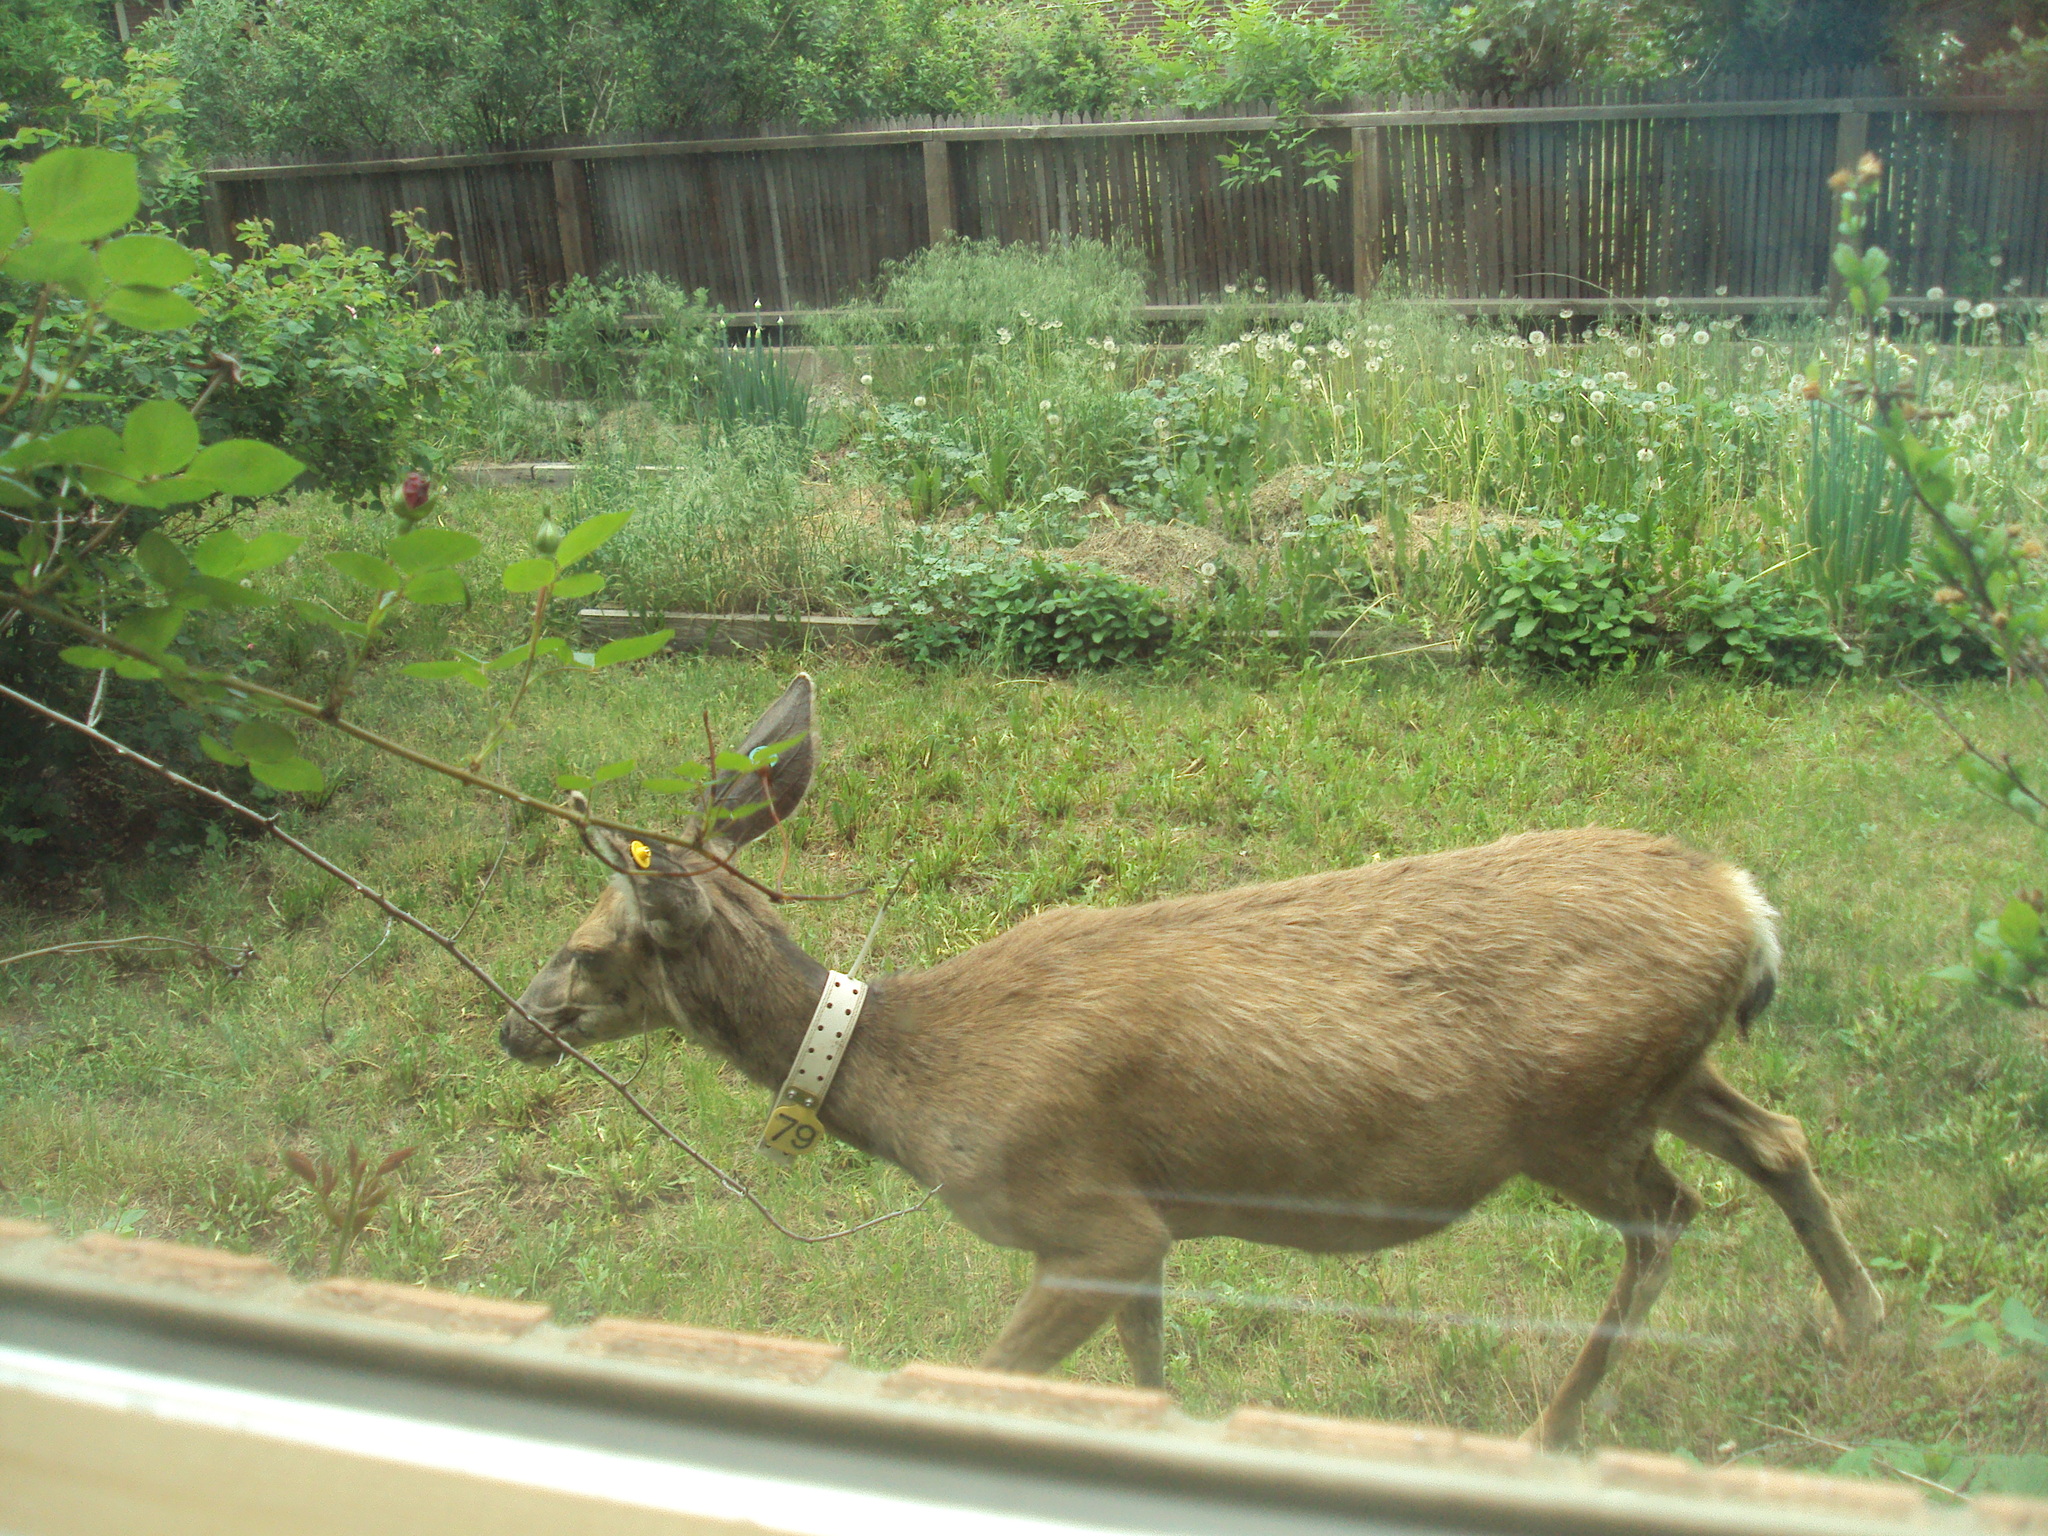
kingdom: Animalia
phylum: Chordata
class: Mammalia
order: Artiodactyla
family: Cervidae
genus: Odocoileus
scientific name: Odocoileus hemionus
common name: Mule deer
